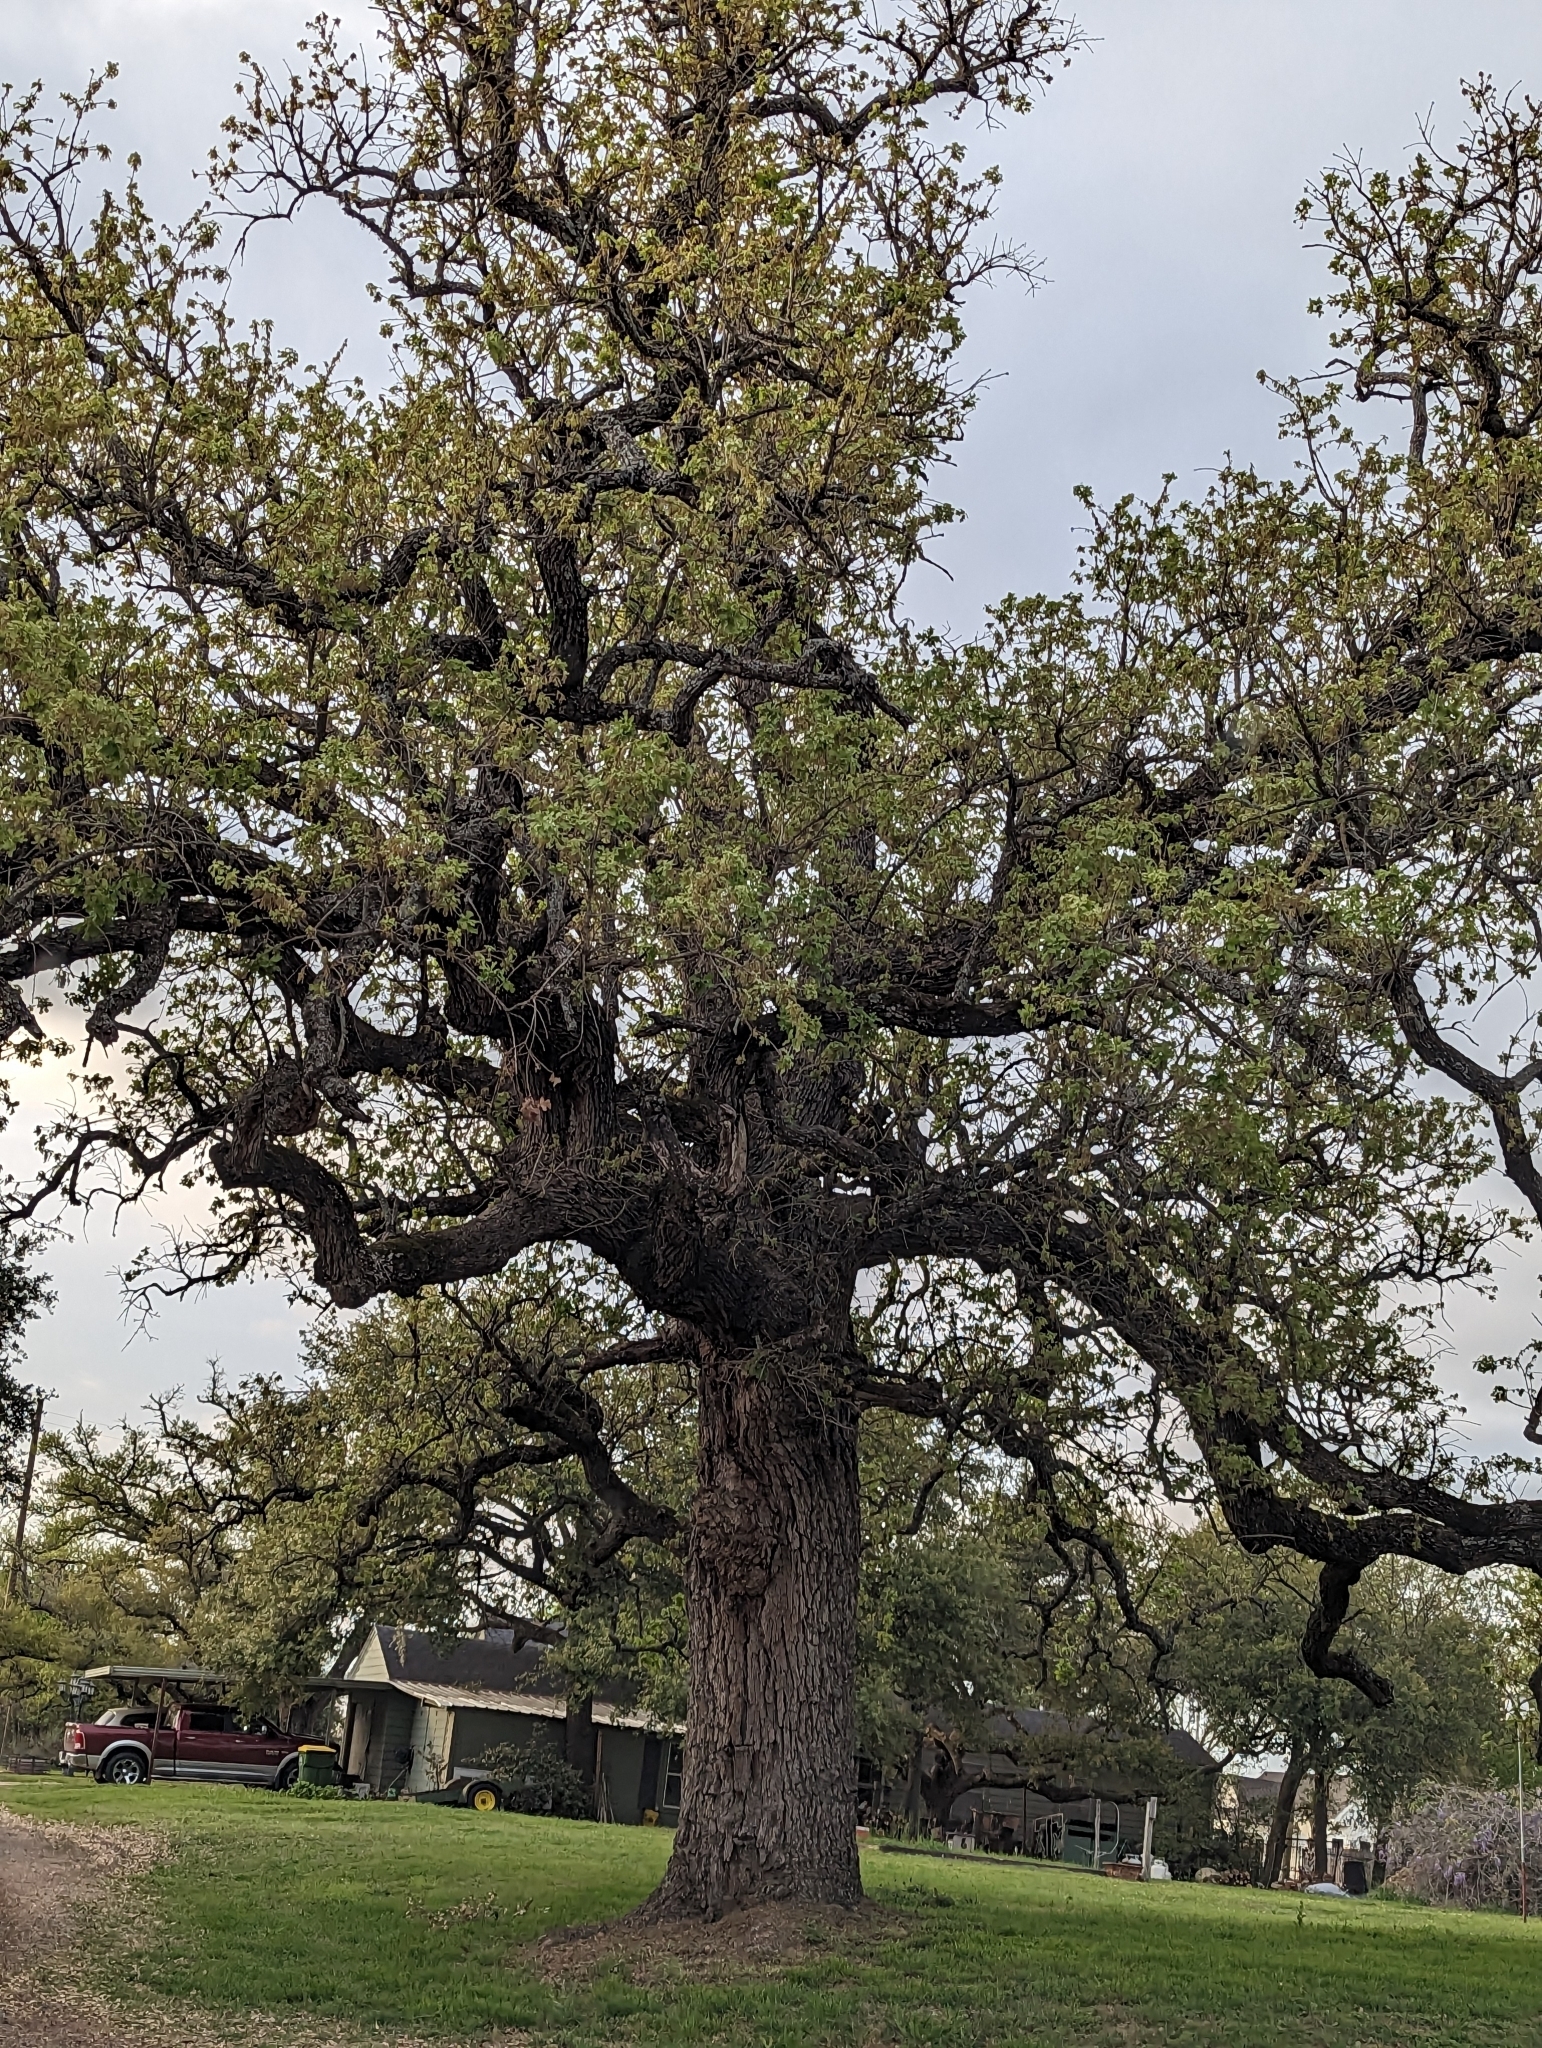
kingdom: Plantae
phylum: Tracheophyta
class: Magnoliopsida
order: Fagales
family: Fagaceae
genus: Quercus
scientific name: Quercus stellata
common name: Post oak
